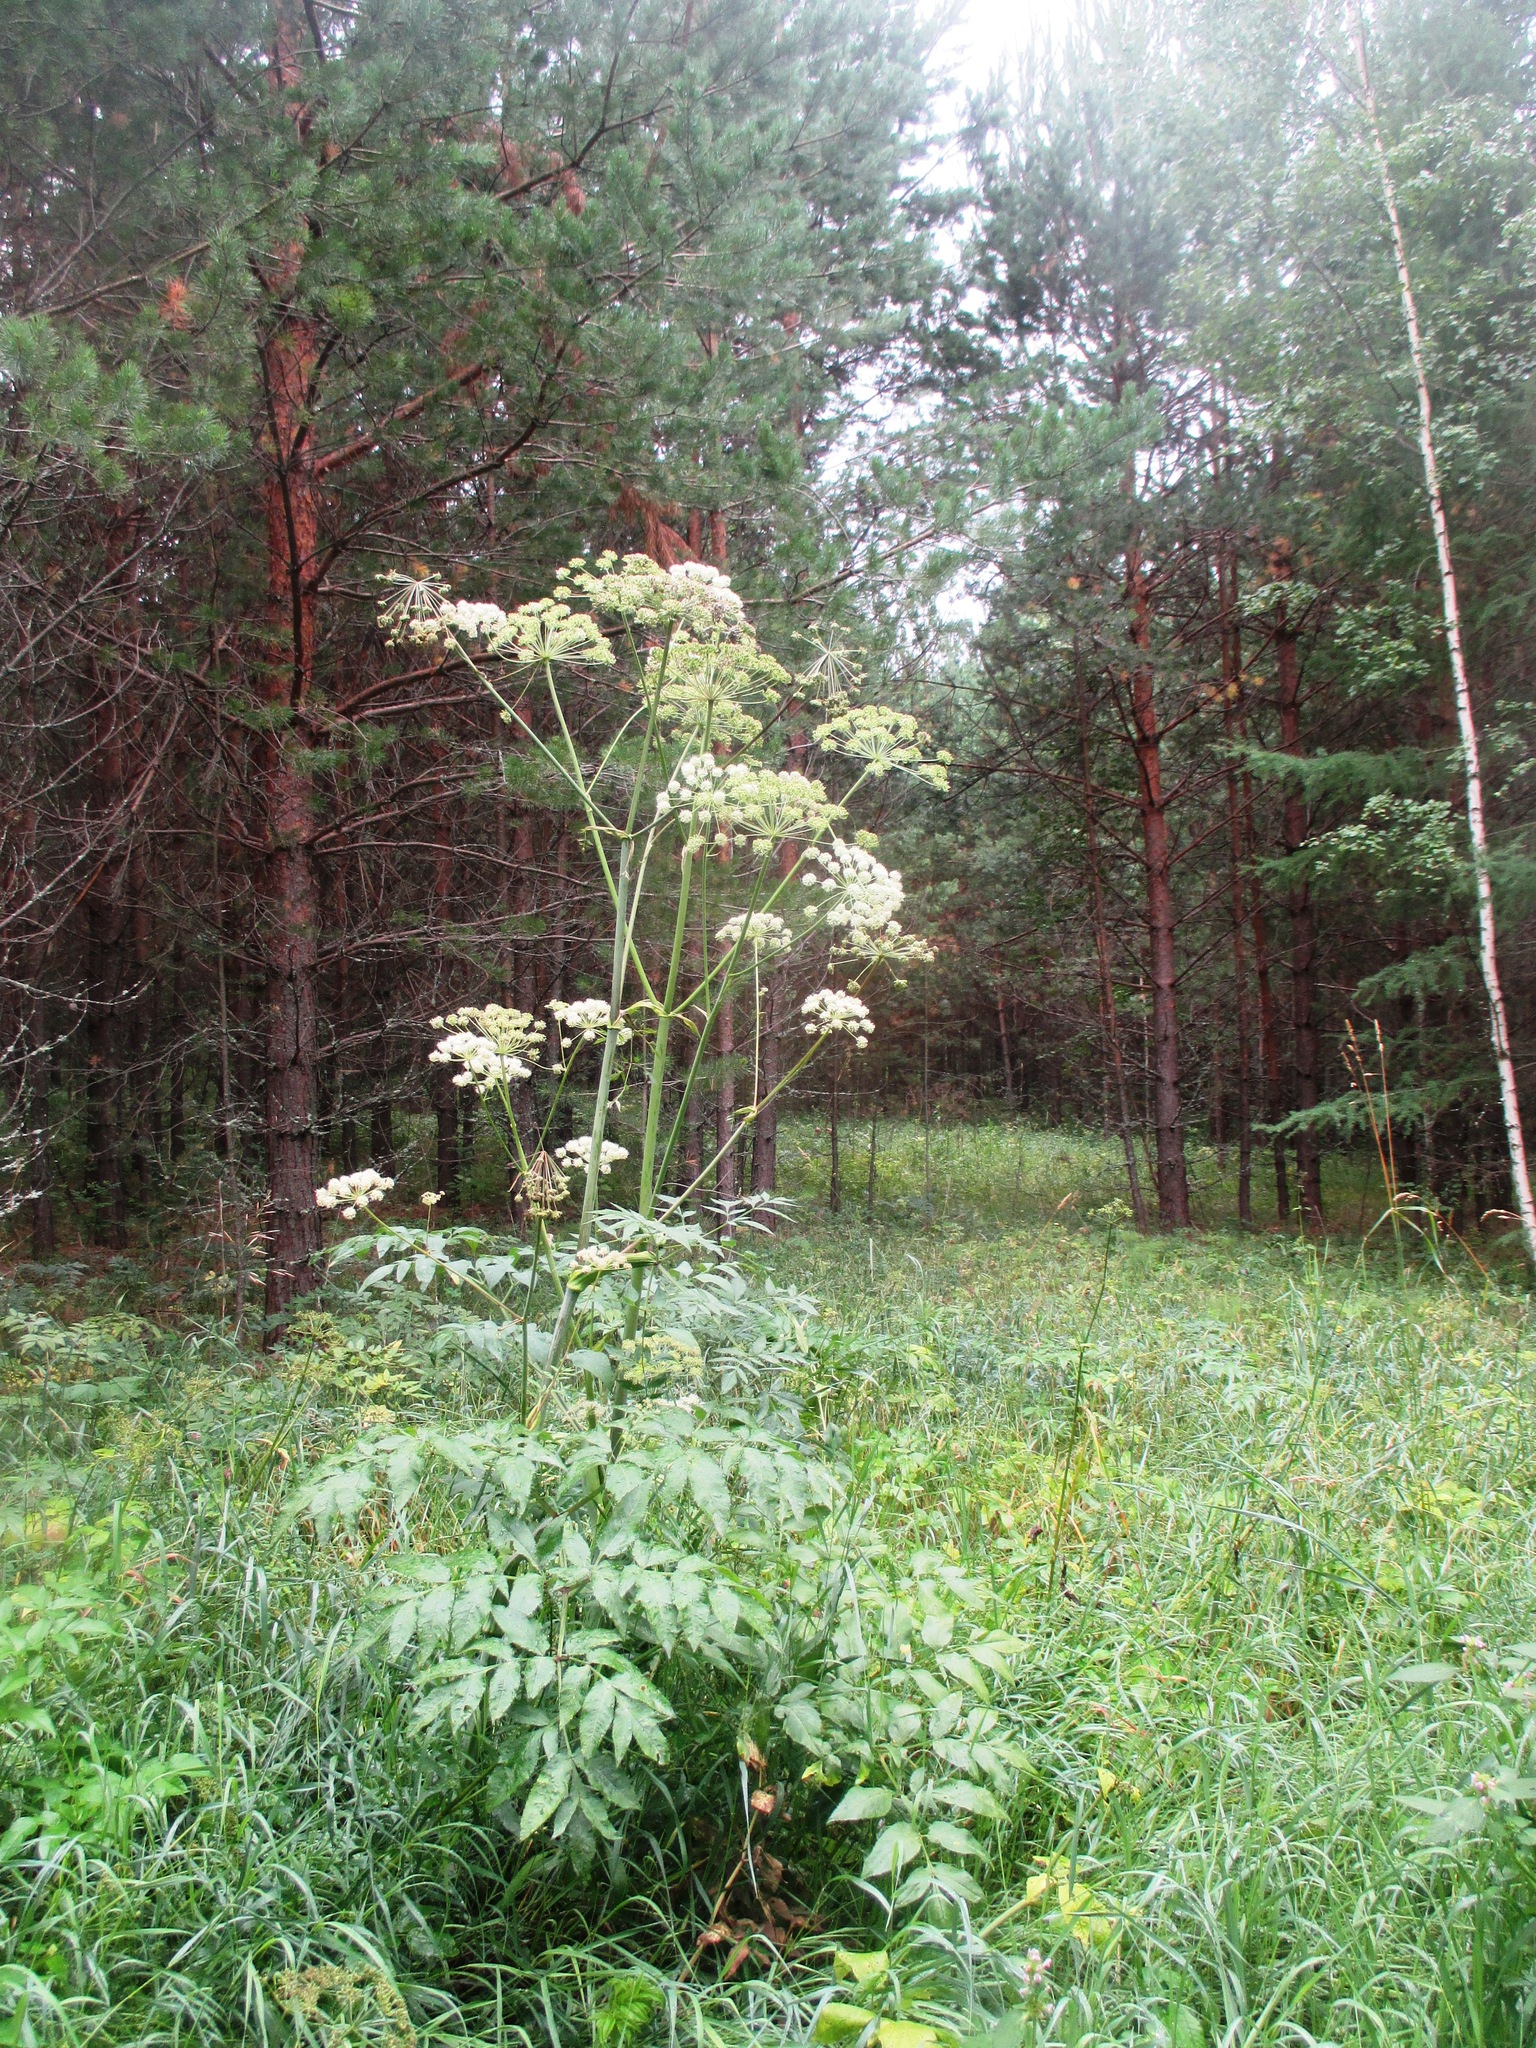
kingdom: Plantae
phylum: Tracheophyta
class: Magnoliopsida
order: Apiales
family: Apiaceae
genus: Angelica
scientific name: Angelica sylvestris
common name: Wild angelica
